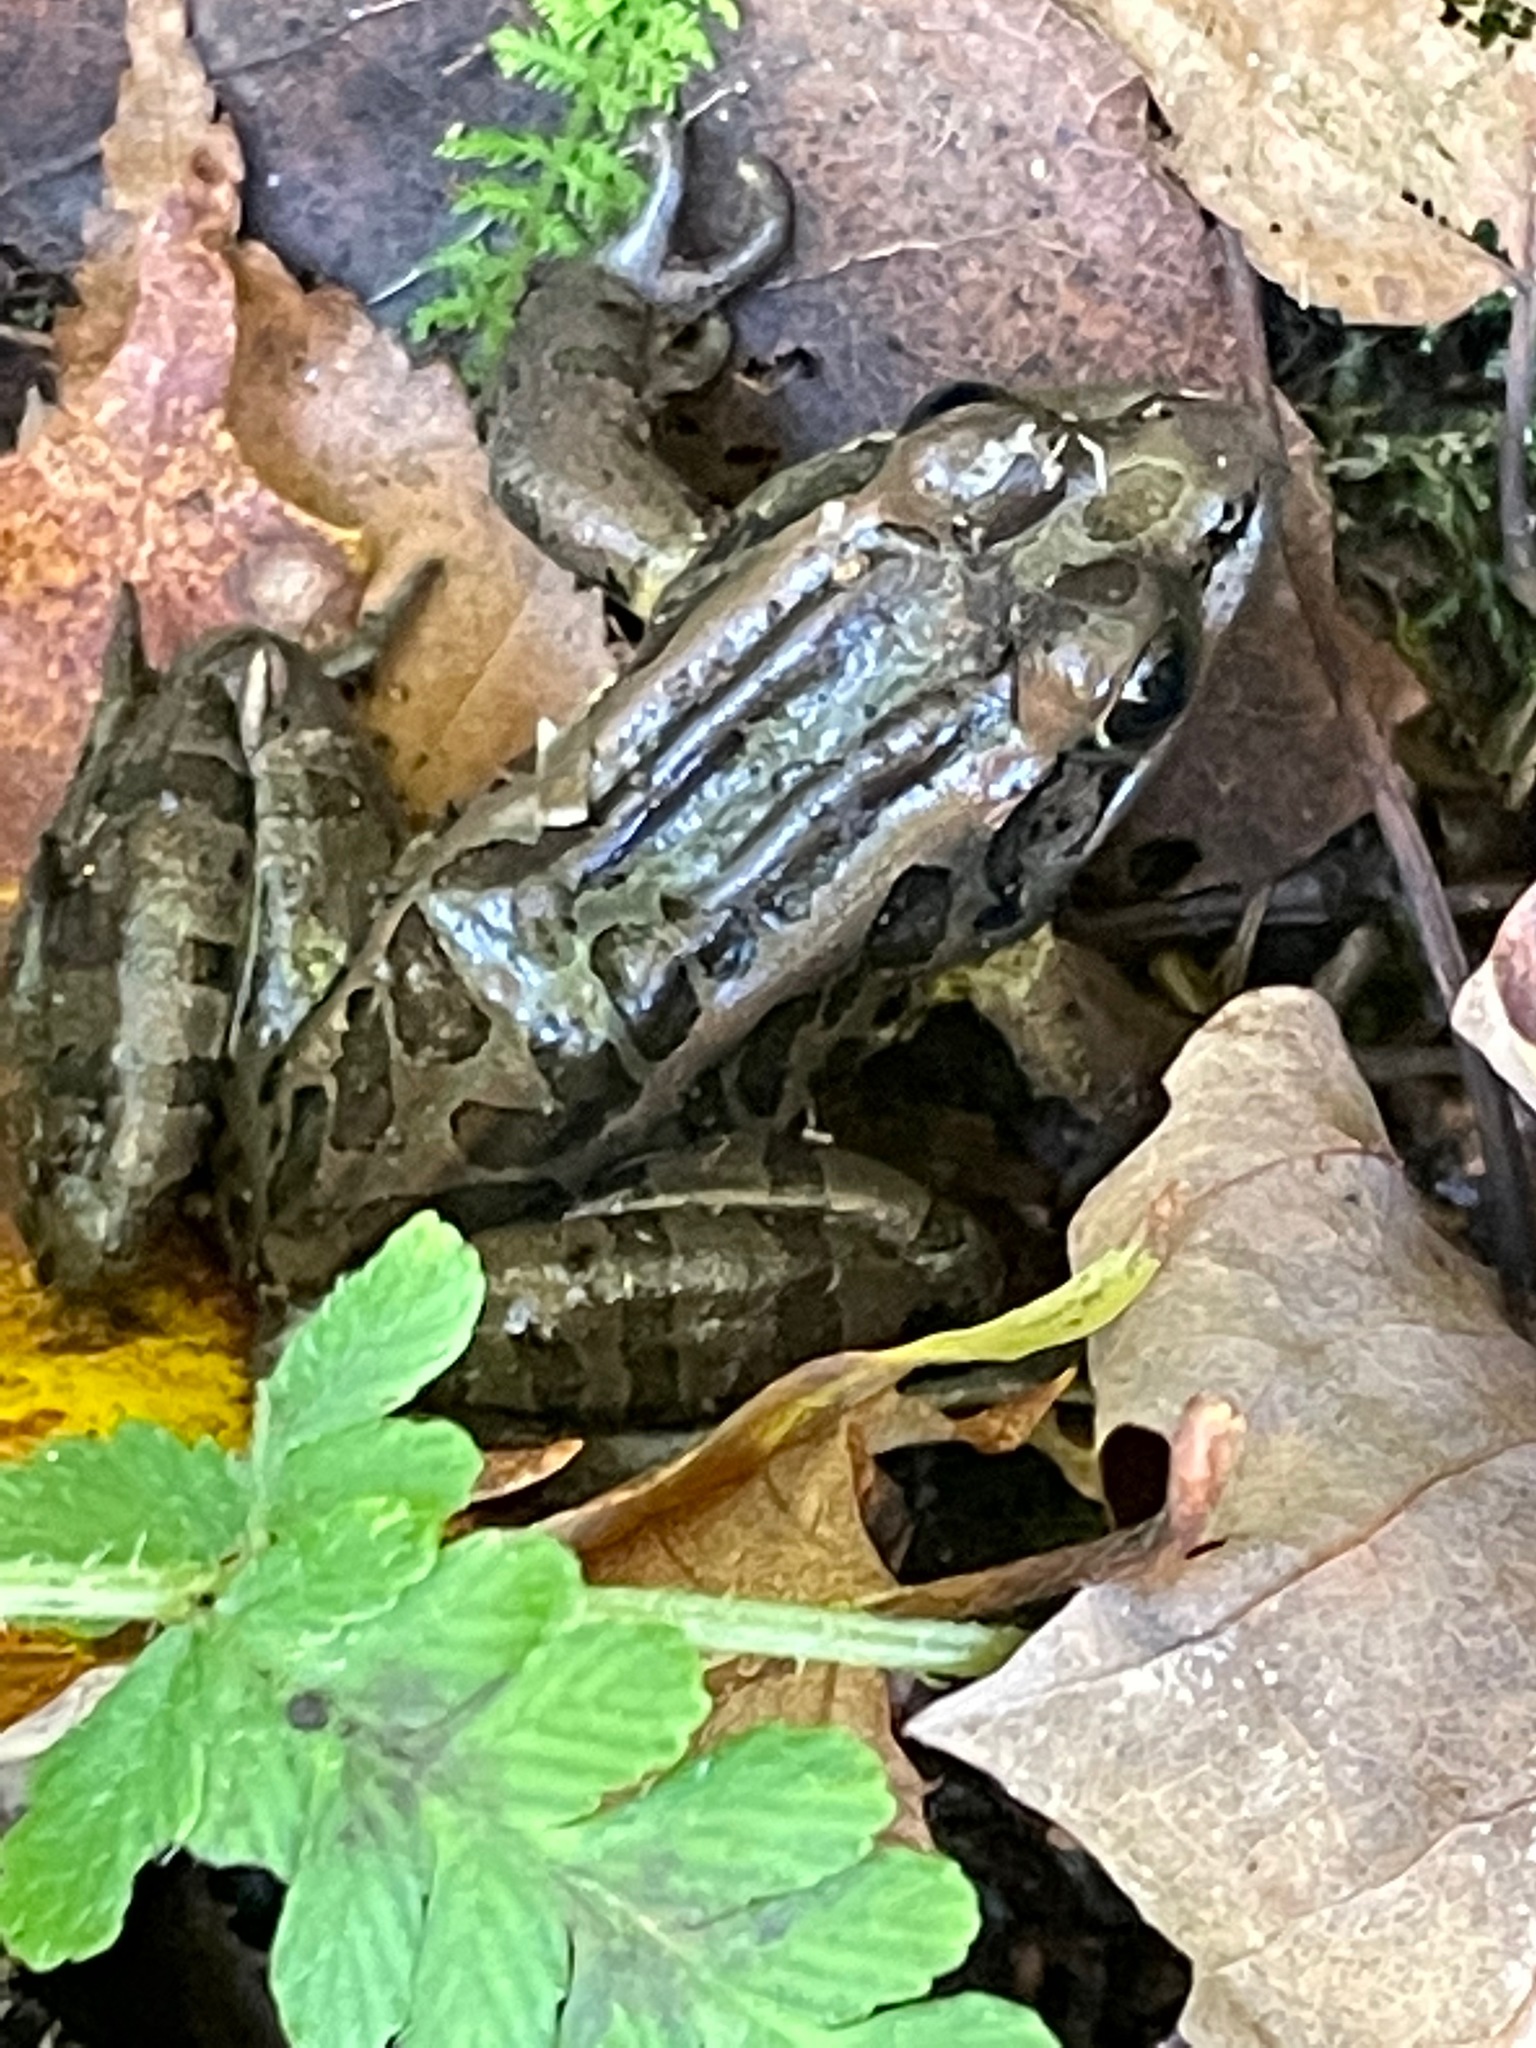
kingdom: Animalia
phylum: Chordata
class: Amphibia
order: Anura
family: Ranidae
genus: Lithobates
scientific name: Lithobates palustris
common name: Pickerel frog
